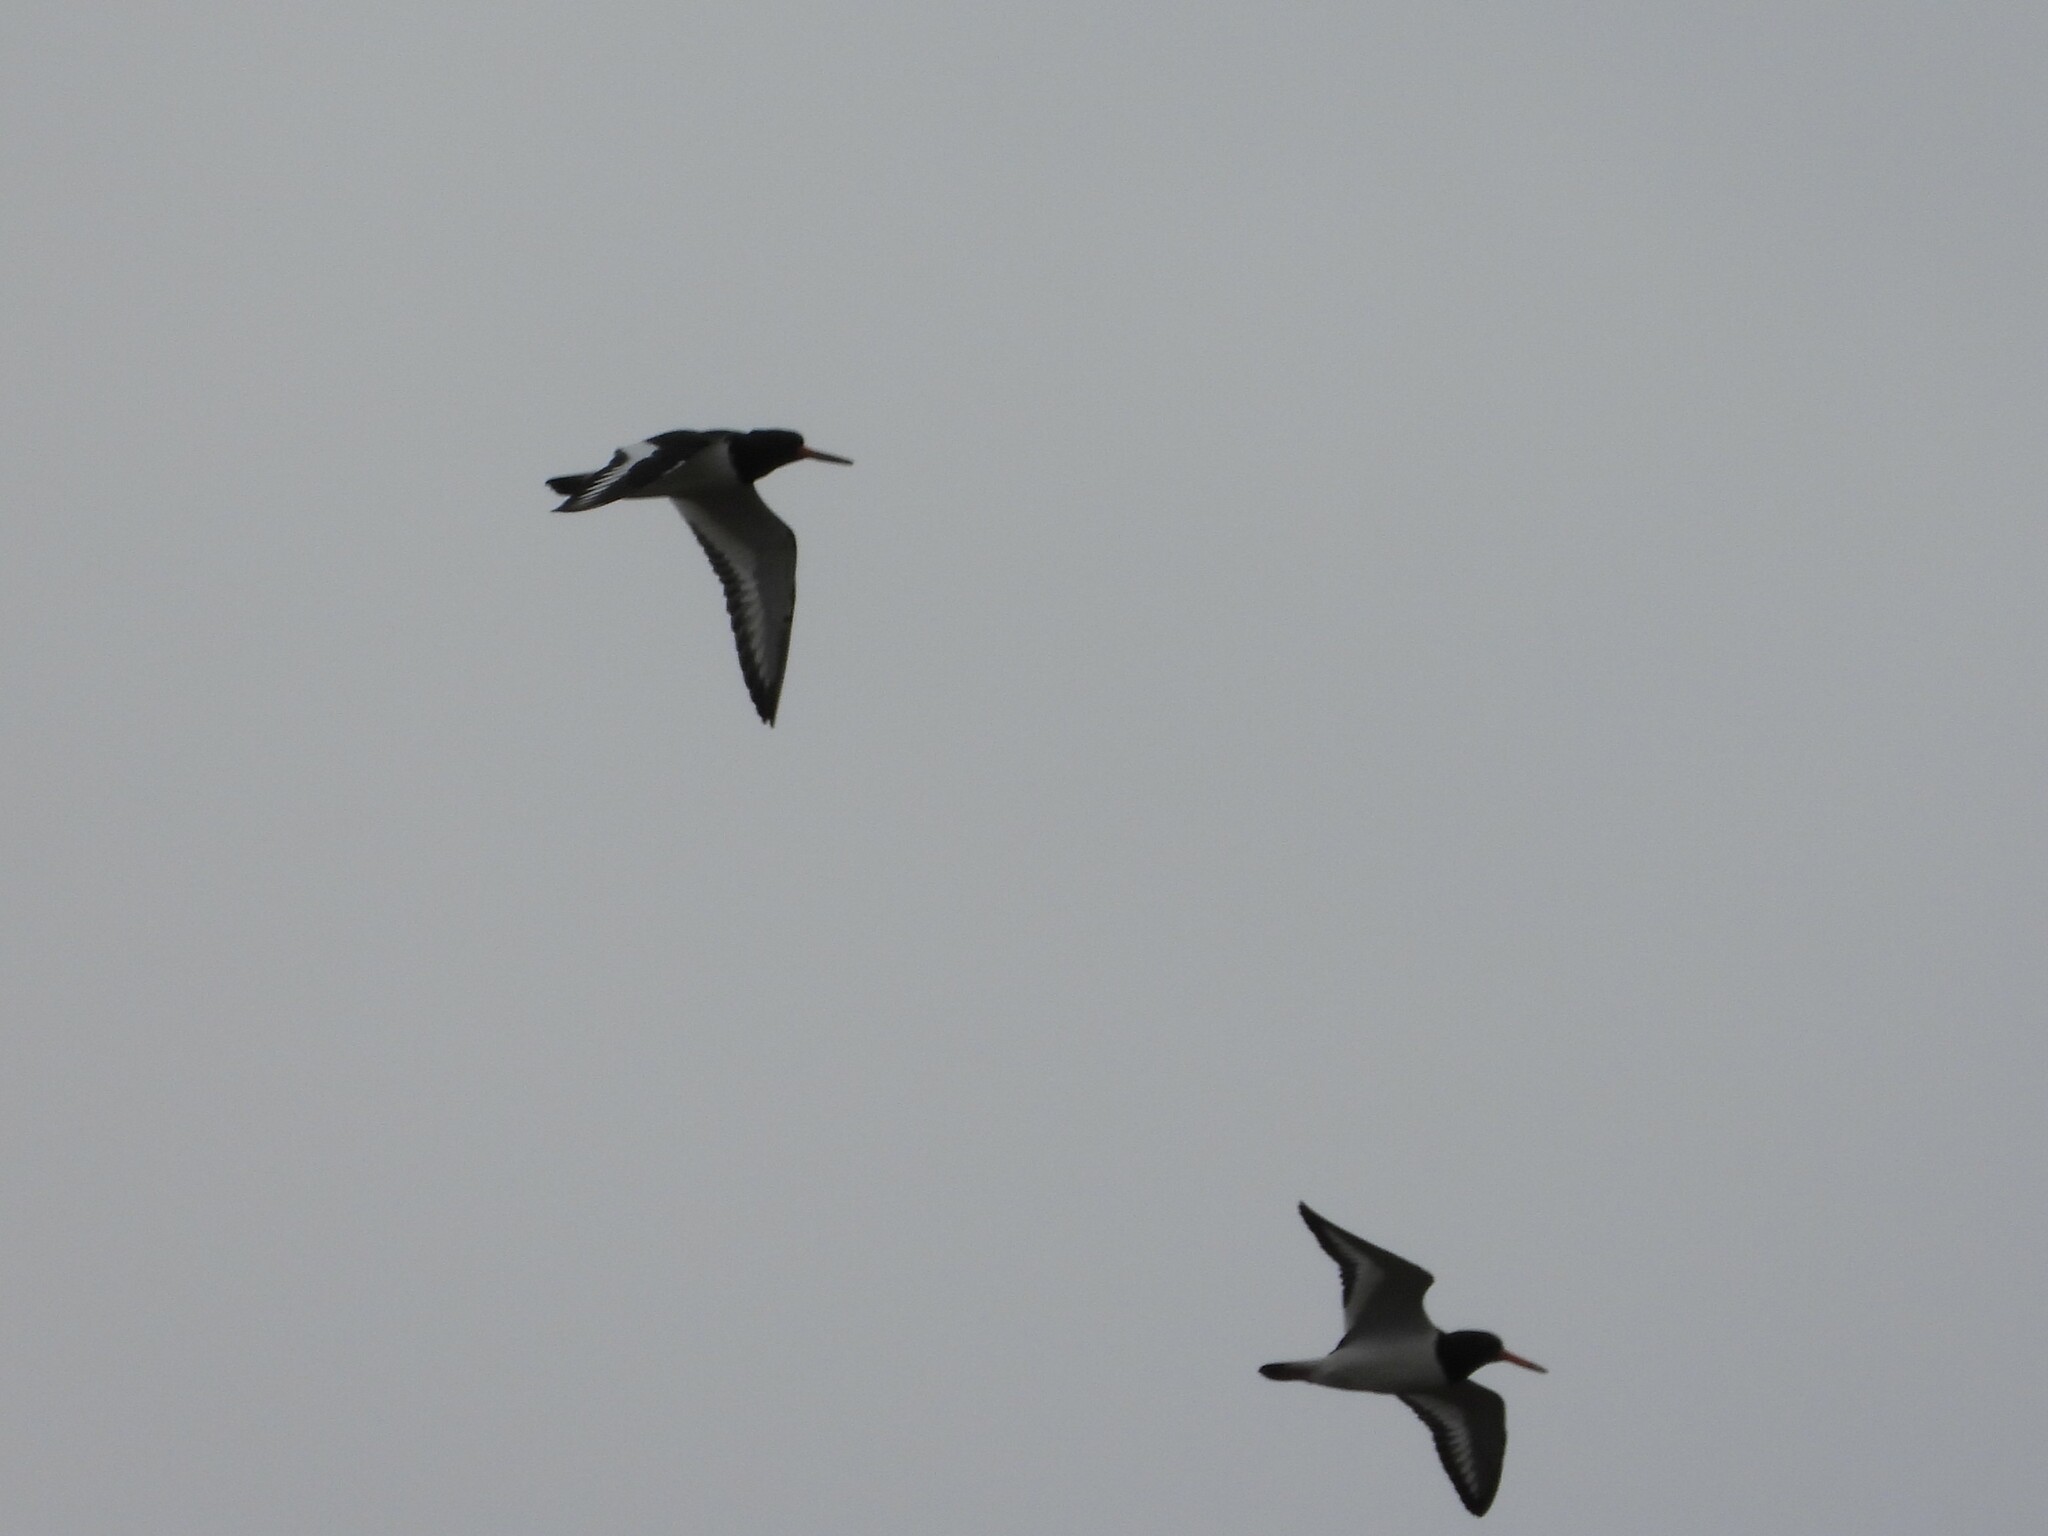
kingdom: Animalia
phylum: Chordata
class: Aves
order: Charadriiformes
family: Haematopodidae
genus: Haematopus
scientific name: Haematopus ostralegus
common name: Eurasian oystercatcher
